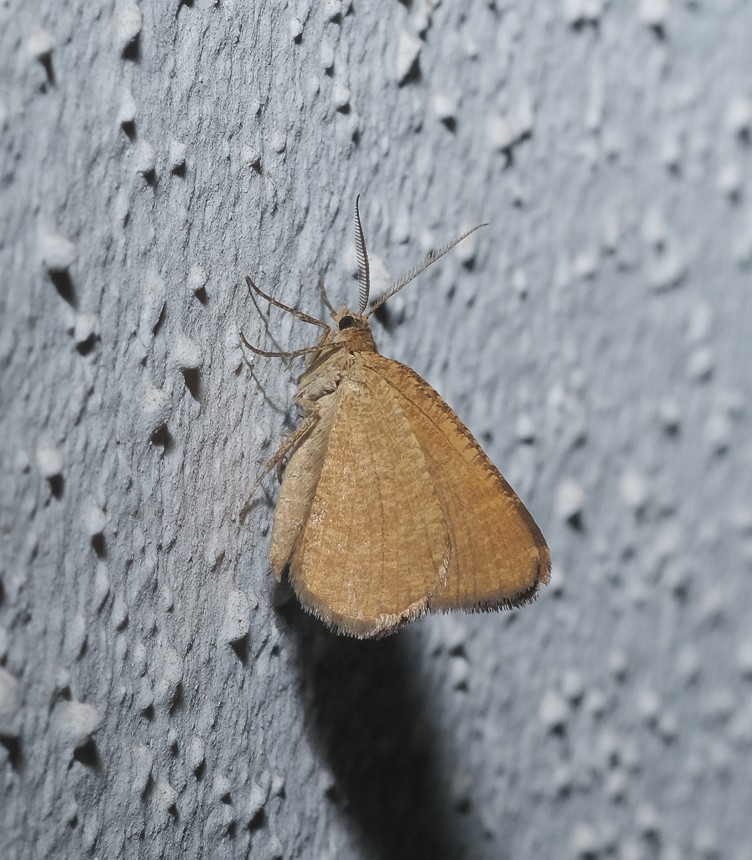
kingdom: Animalia
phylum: Arthropoda
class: Insecta
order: Lepidoptera
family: Geometridae
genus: Macaria
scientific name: Macaria brunneata
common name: Rannoch looper
